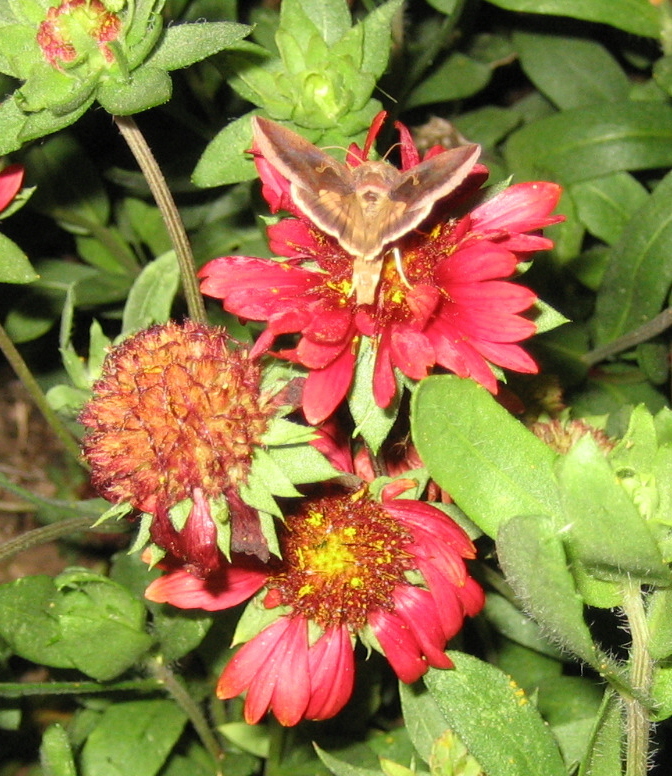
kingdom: Animalia
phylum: Arthropoda
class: Insecta
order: Lepidoptera
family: Noctuidae
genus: Anagrapha
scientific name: Anagrapha falcifera
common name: Celery looper
